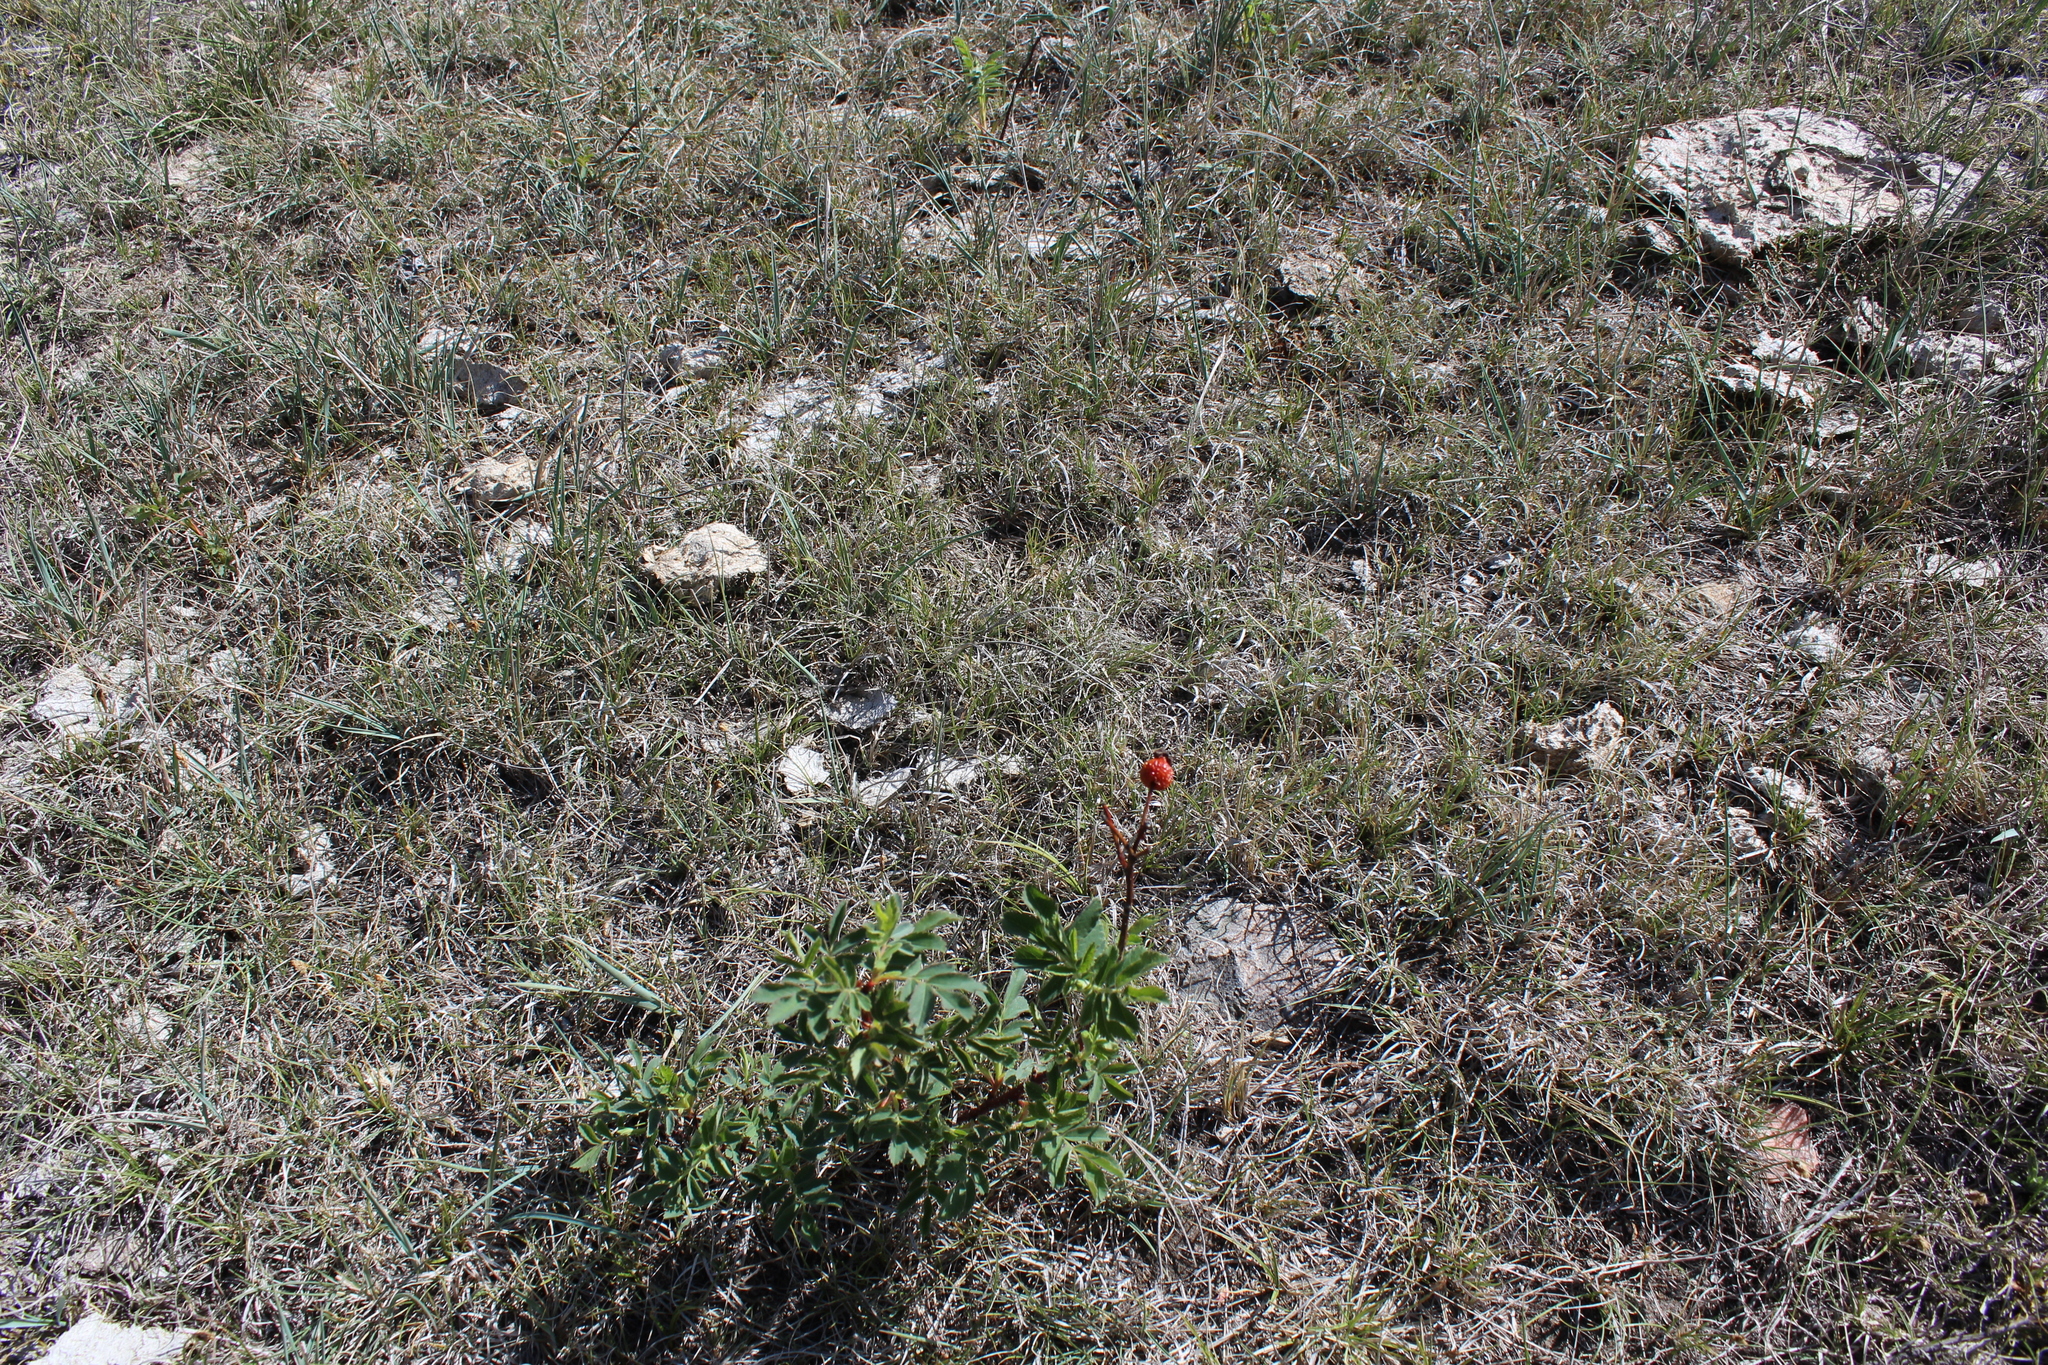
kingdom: Plantae
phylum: Tracheophyta
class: Magnoliopsida
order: Rosales
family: Rosaceae
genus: Rosa
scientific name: Rosa arkansana
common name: Prairie rose
